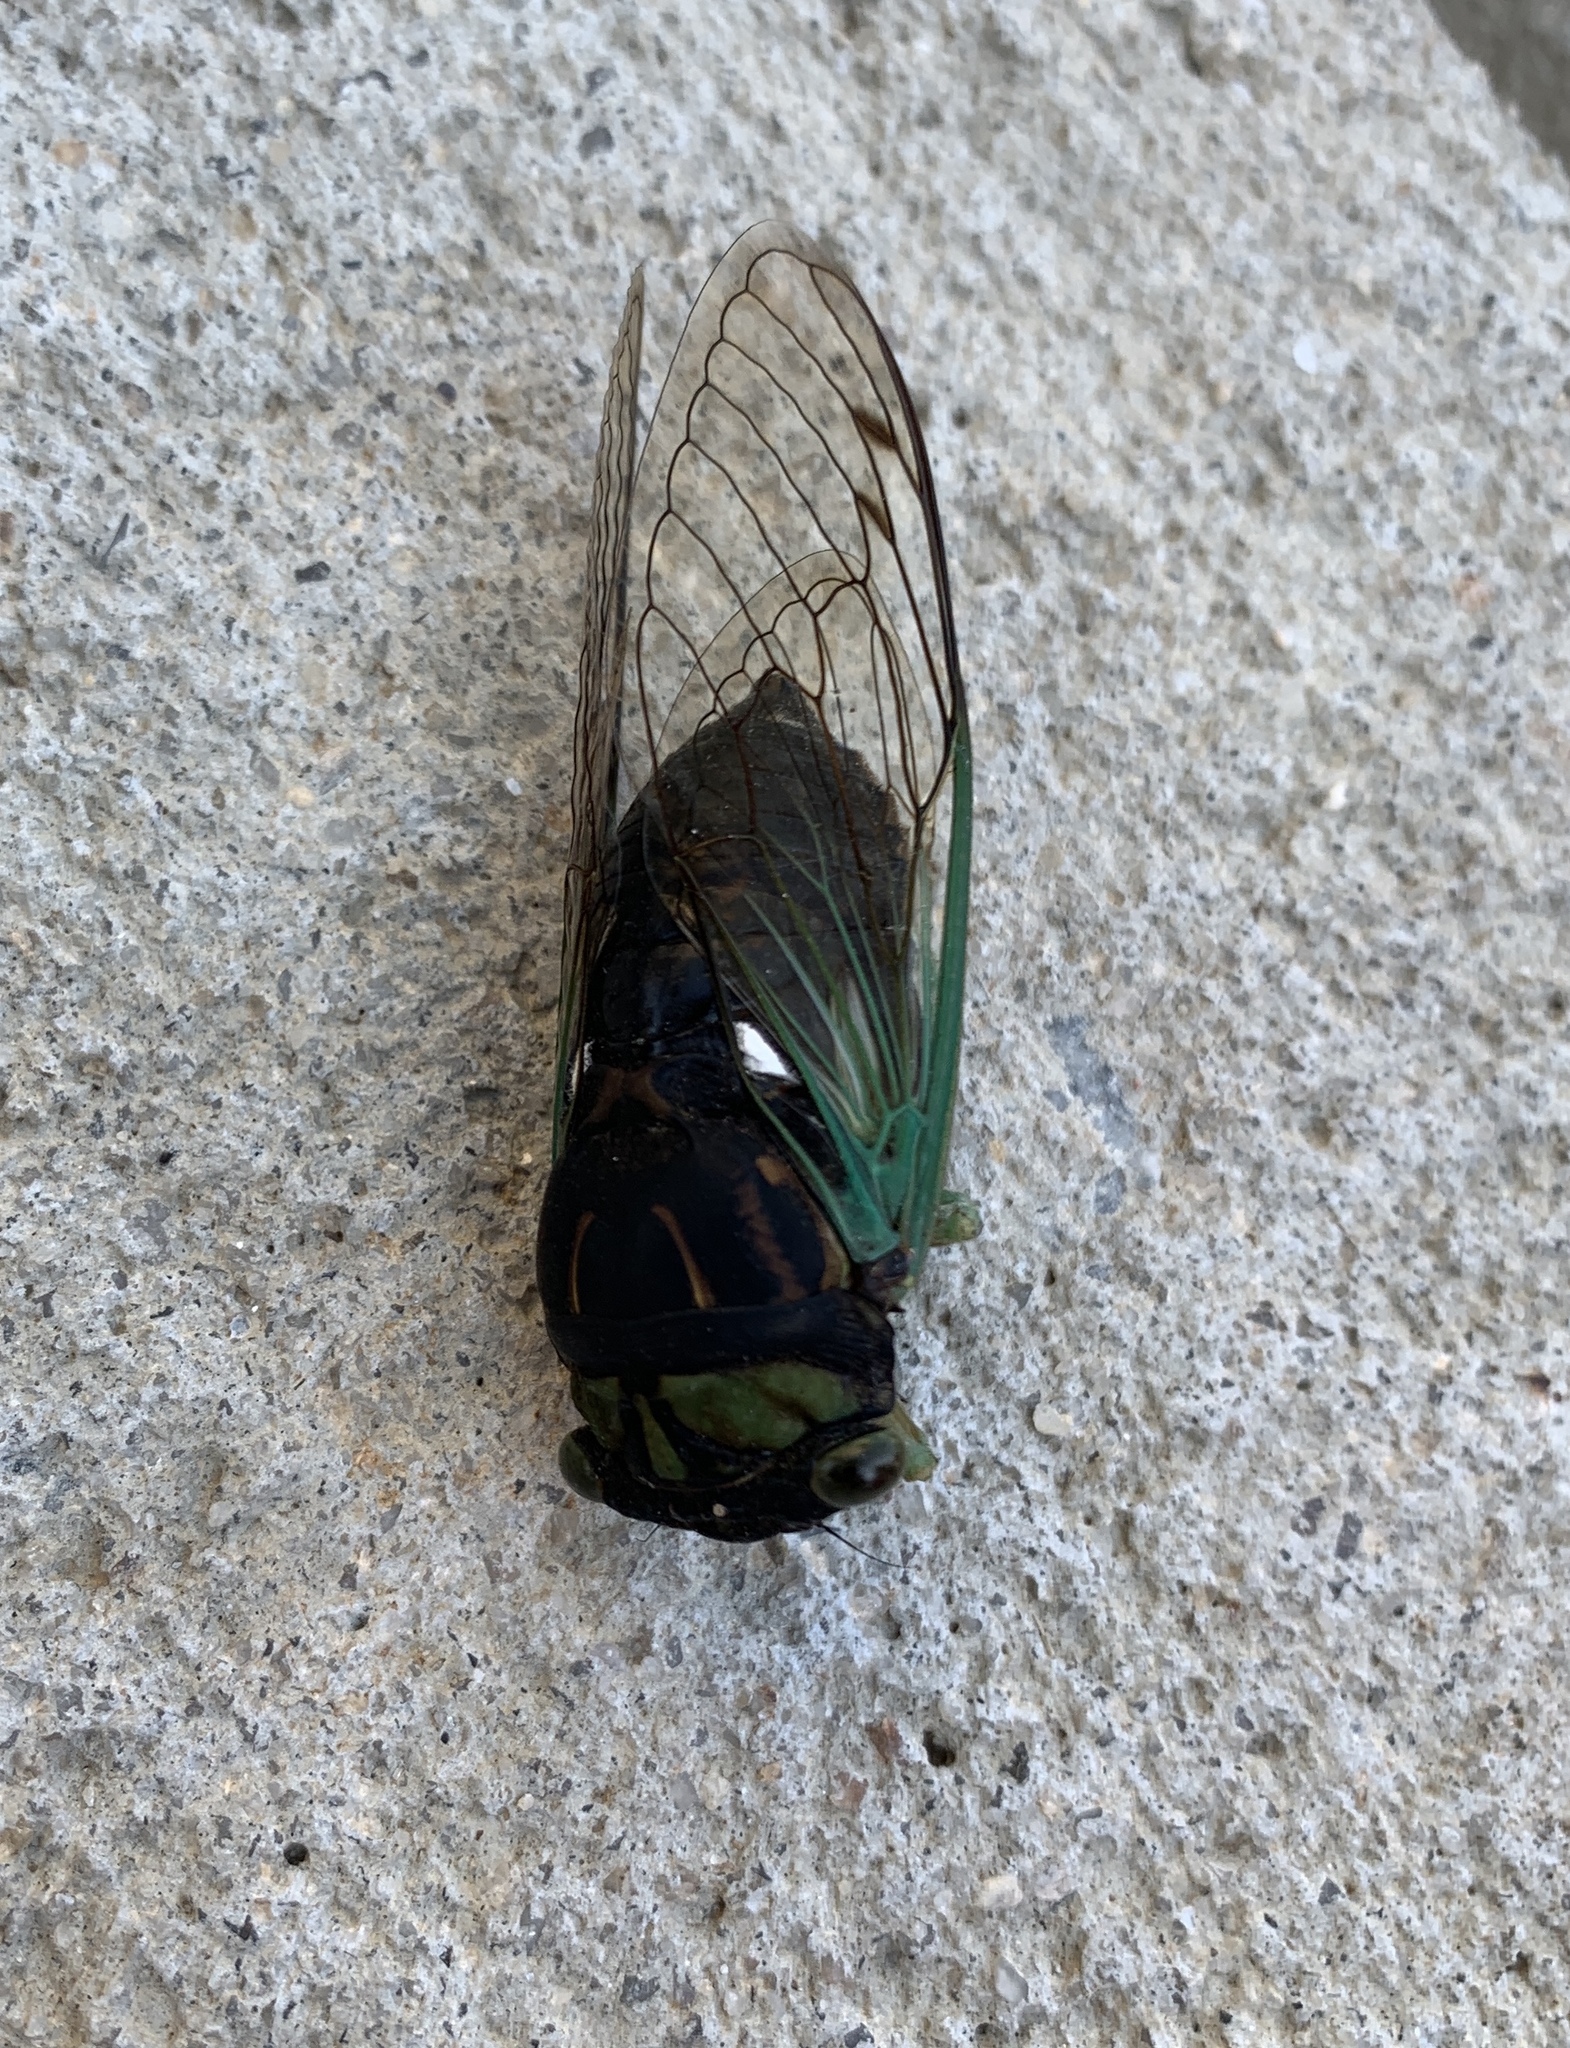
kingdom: Animalia
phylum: Arthropoda
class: Insecta
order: Hemiptera
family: Cicadidae
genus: Neotibicen
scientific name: Neotibicen tibicen
